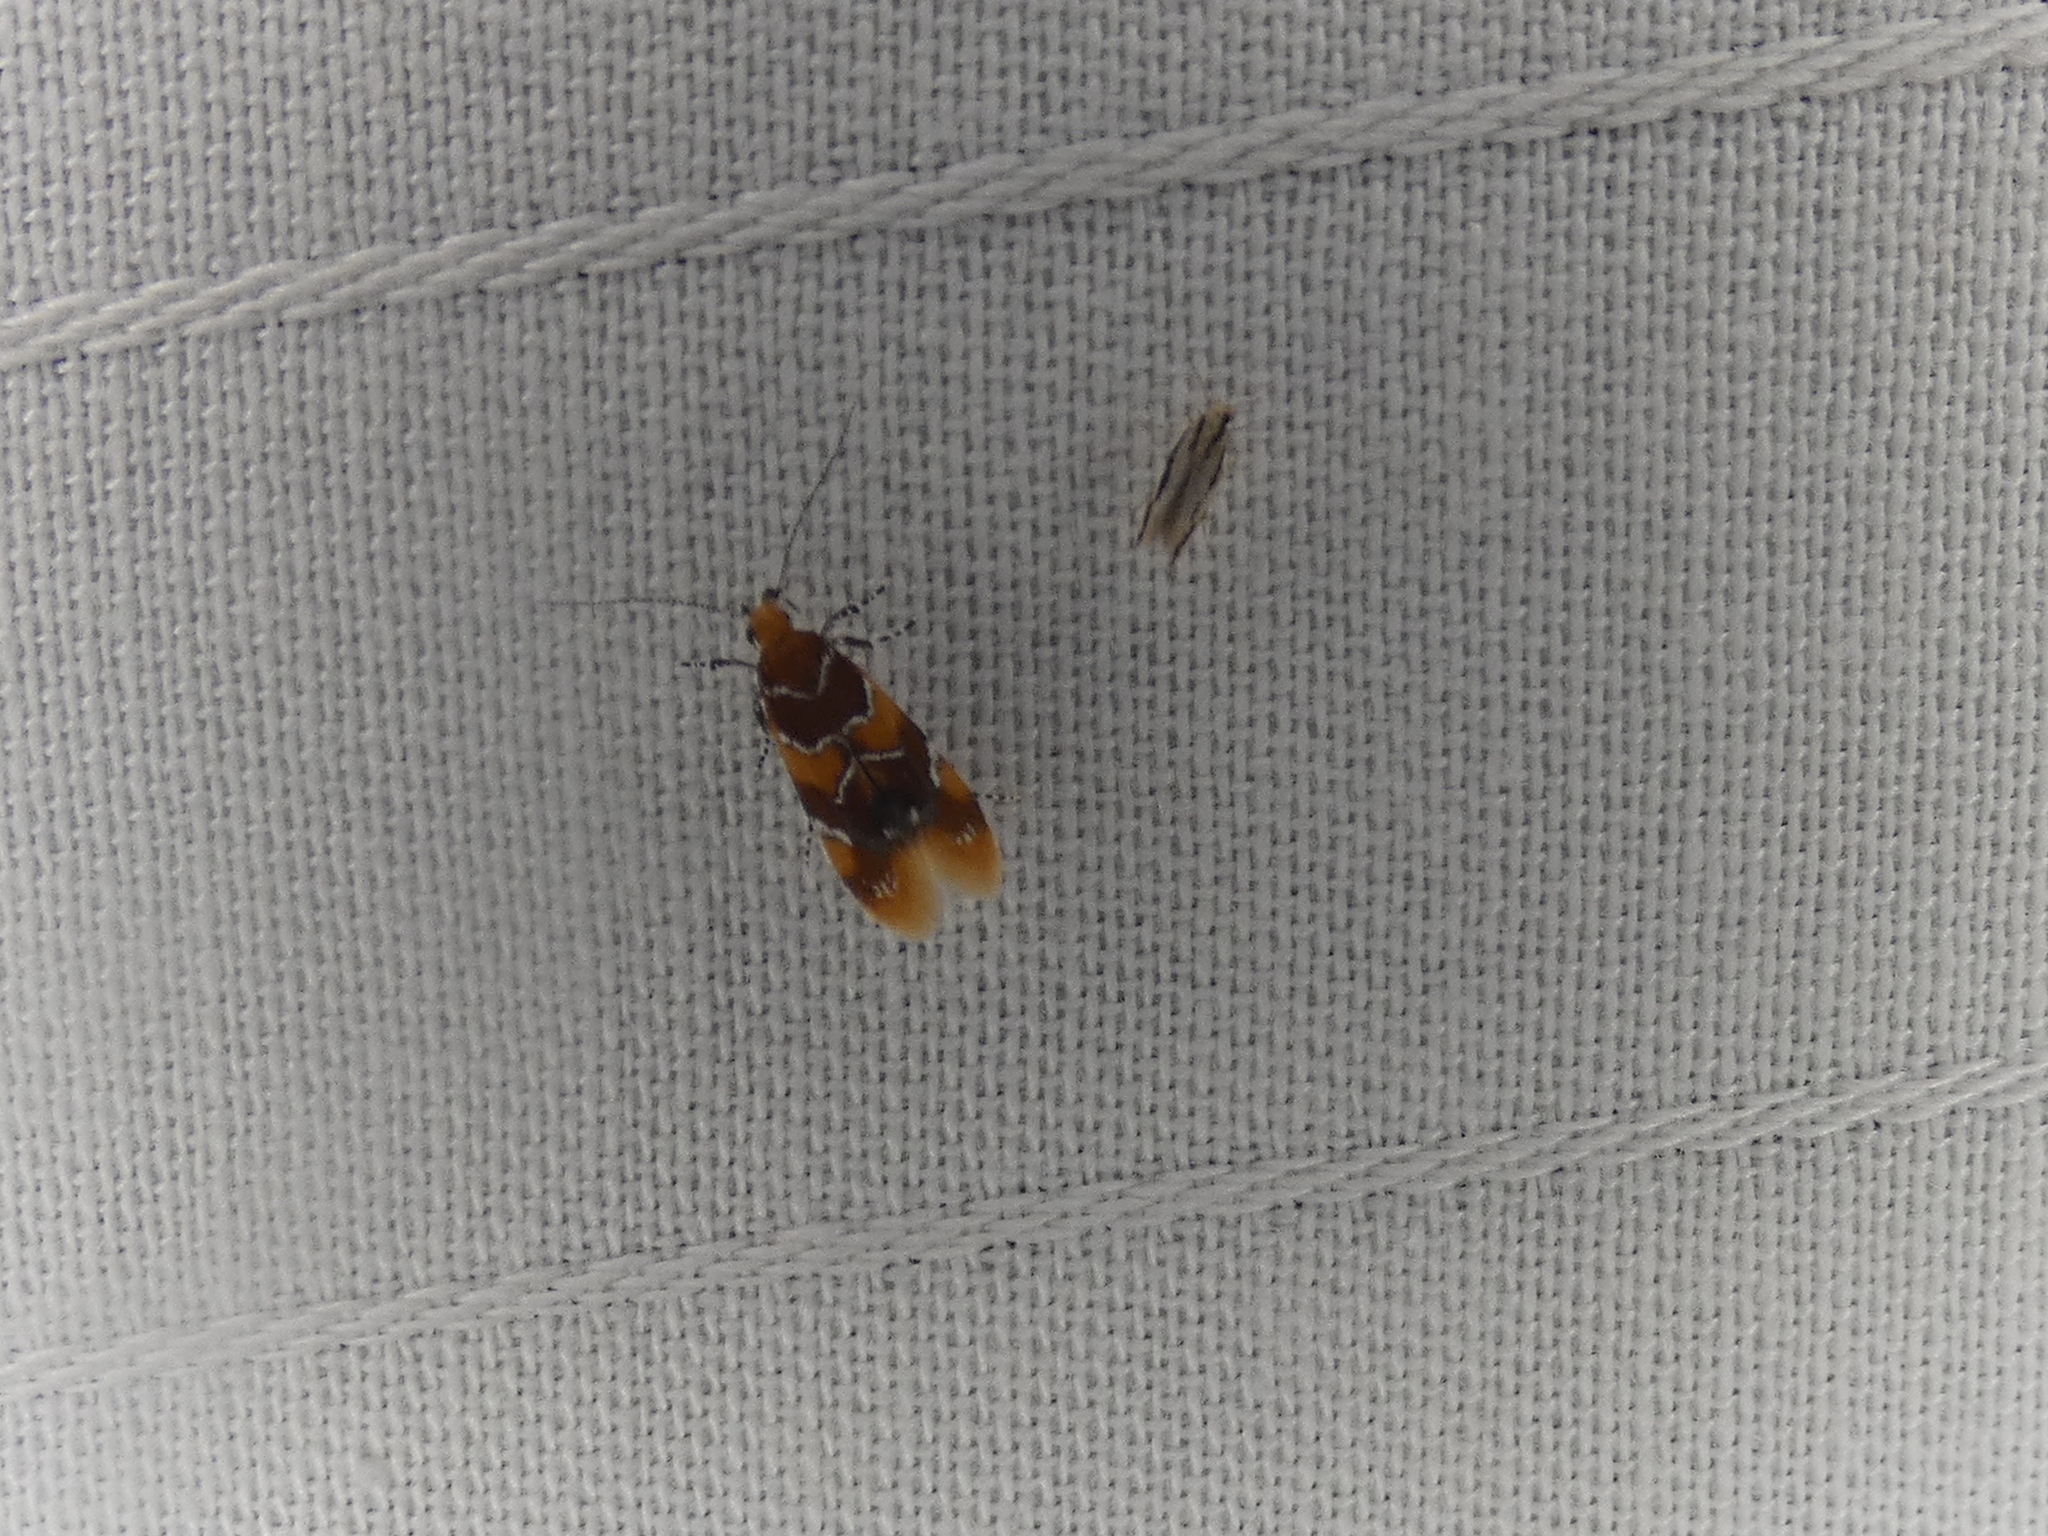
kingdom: Animalia
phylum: Arthropoda
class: Insecta
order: Lepidoptera
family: Oecophoridae
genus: Callima
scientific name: Callima argenticinctella
